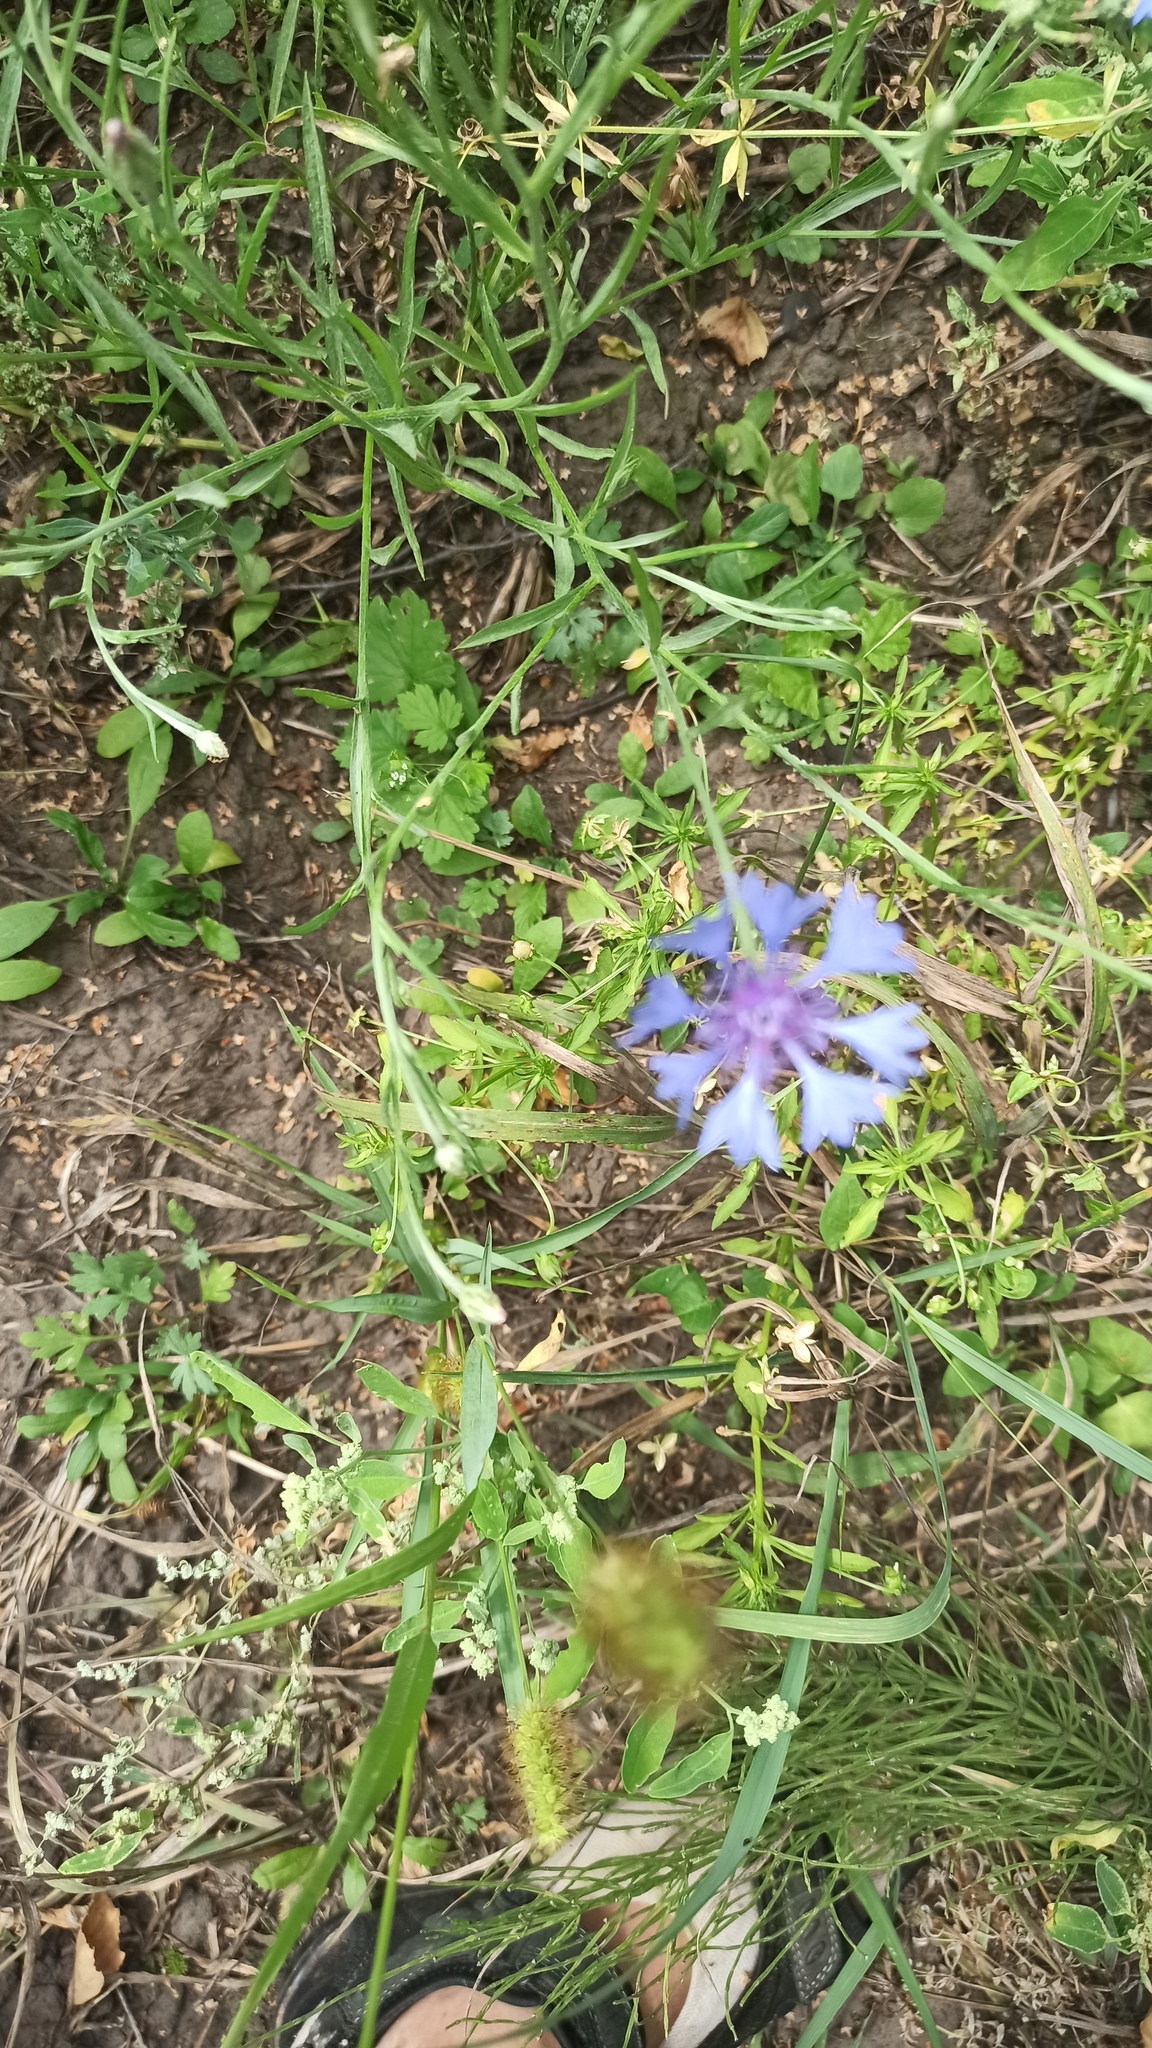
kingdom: Plantae
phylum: Tracheophyta
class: Magnoliopsida
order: Asterales
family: Asteraceae
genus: Centaurea
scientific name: Centaurea cyanus
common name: Cornflower
